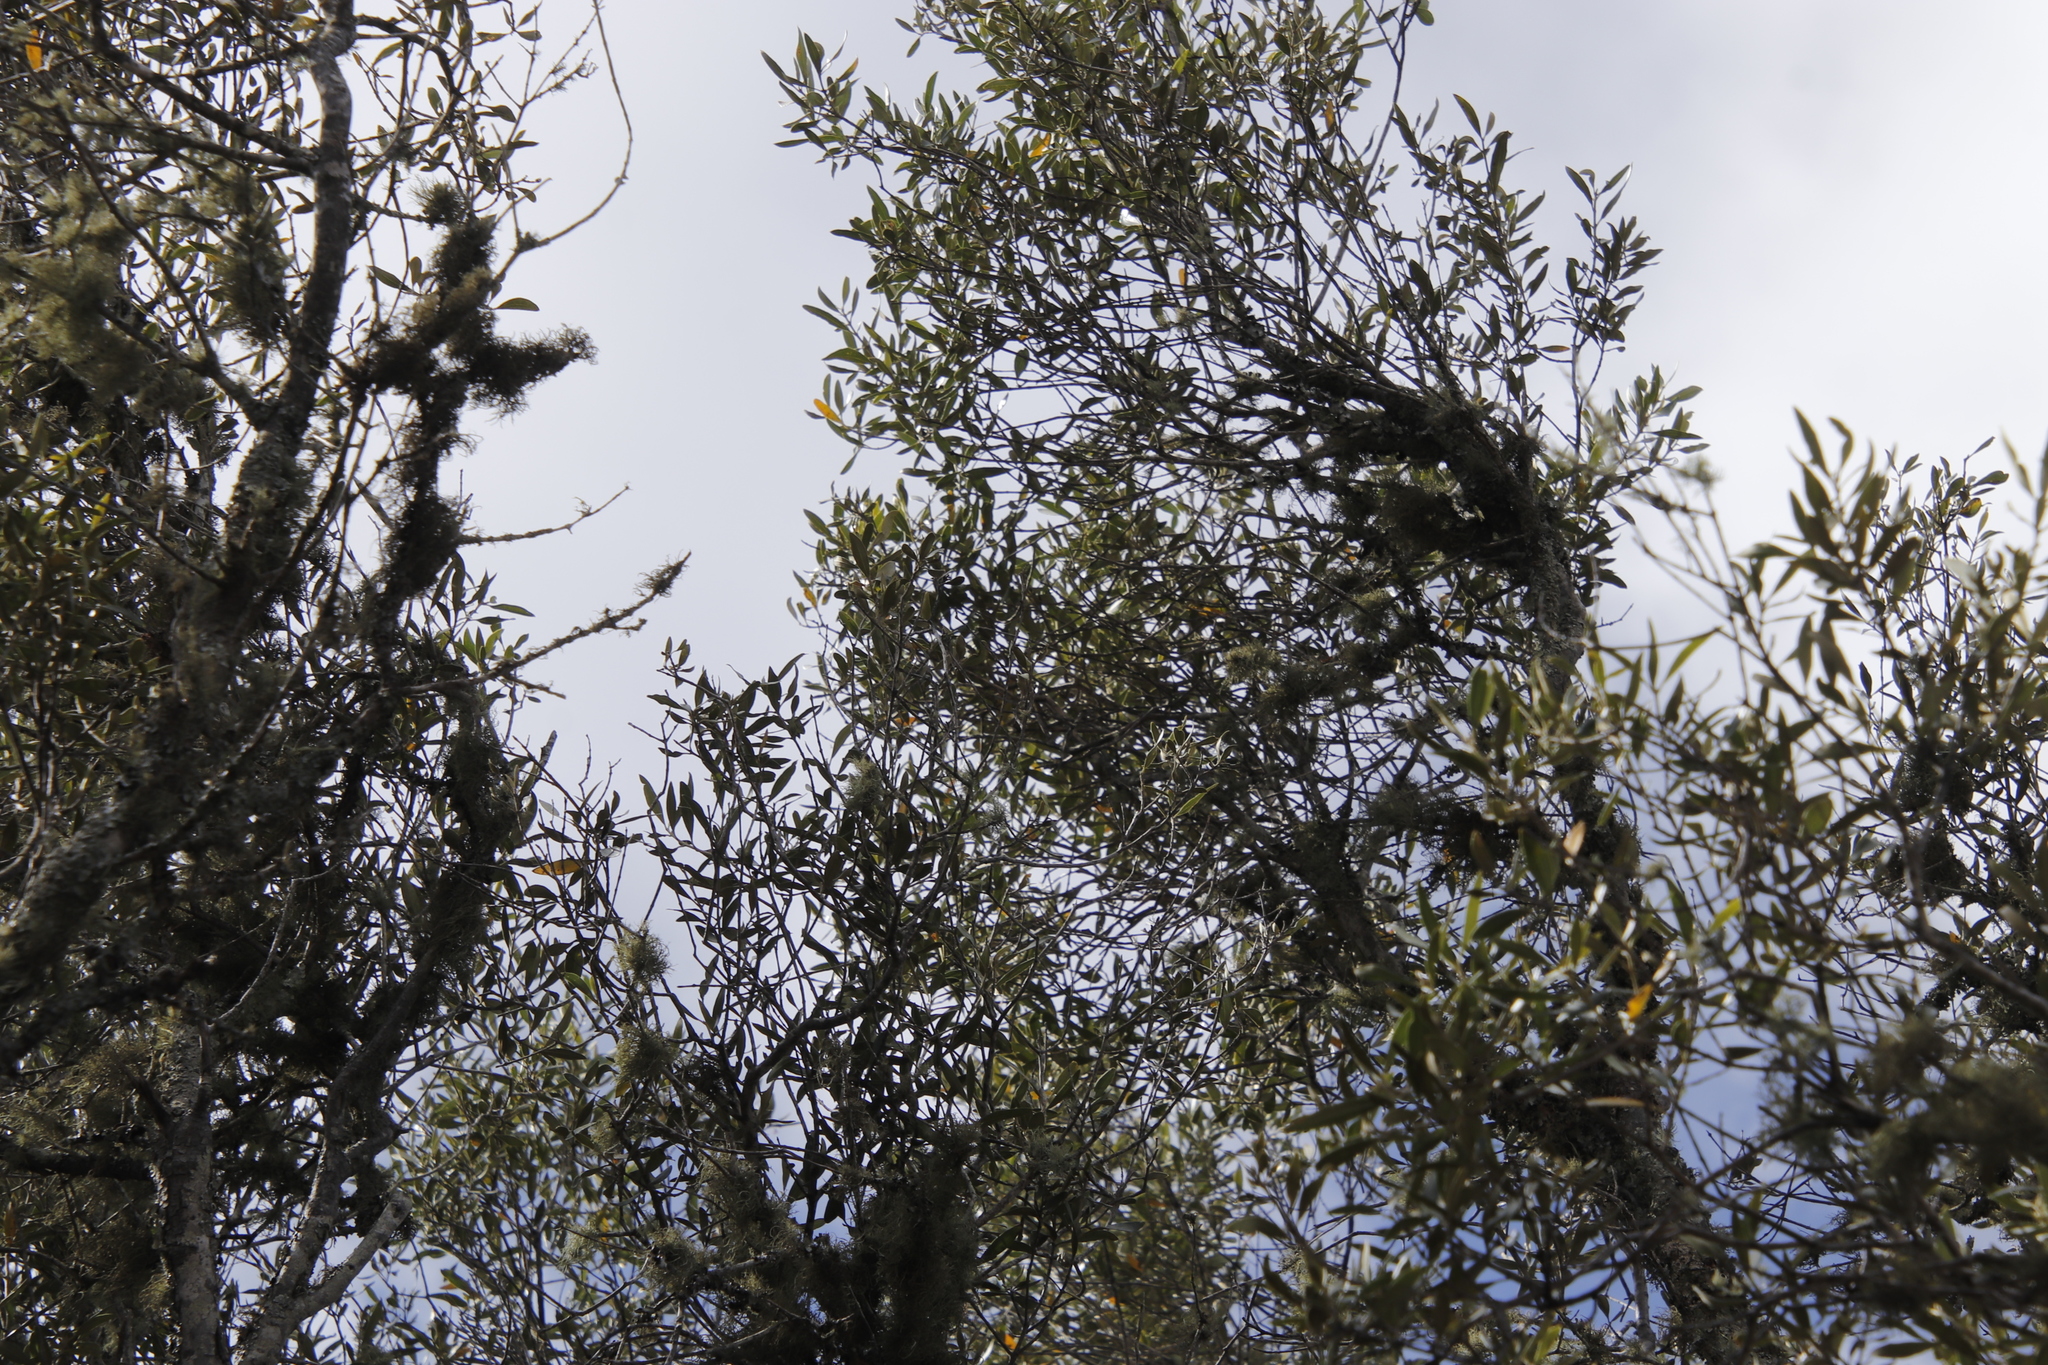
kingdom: Plantae
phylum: Tracheophyta
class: Magnoliopsida
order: Lamiales
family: Oleaceae
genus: Olea
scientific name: Olea europaea
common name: Olive
